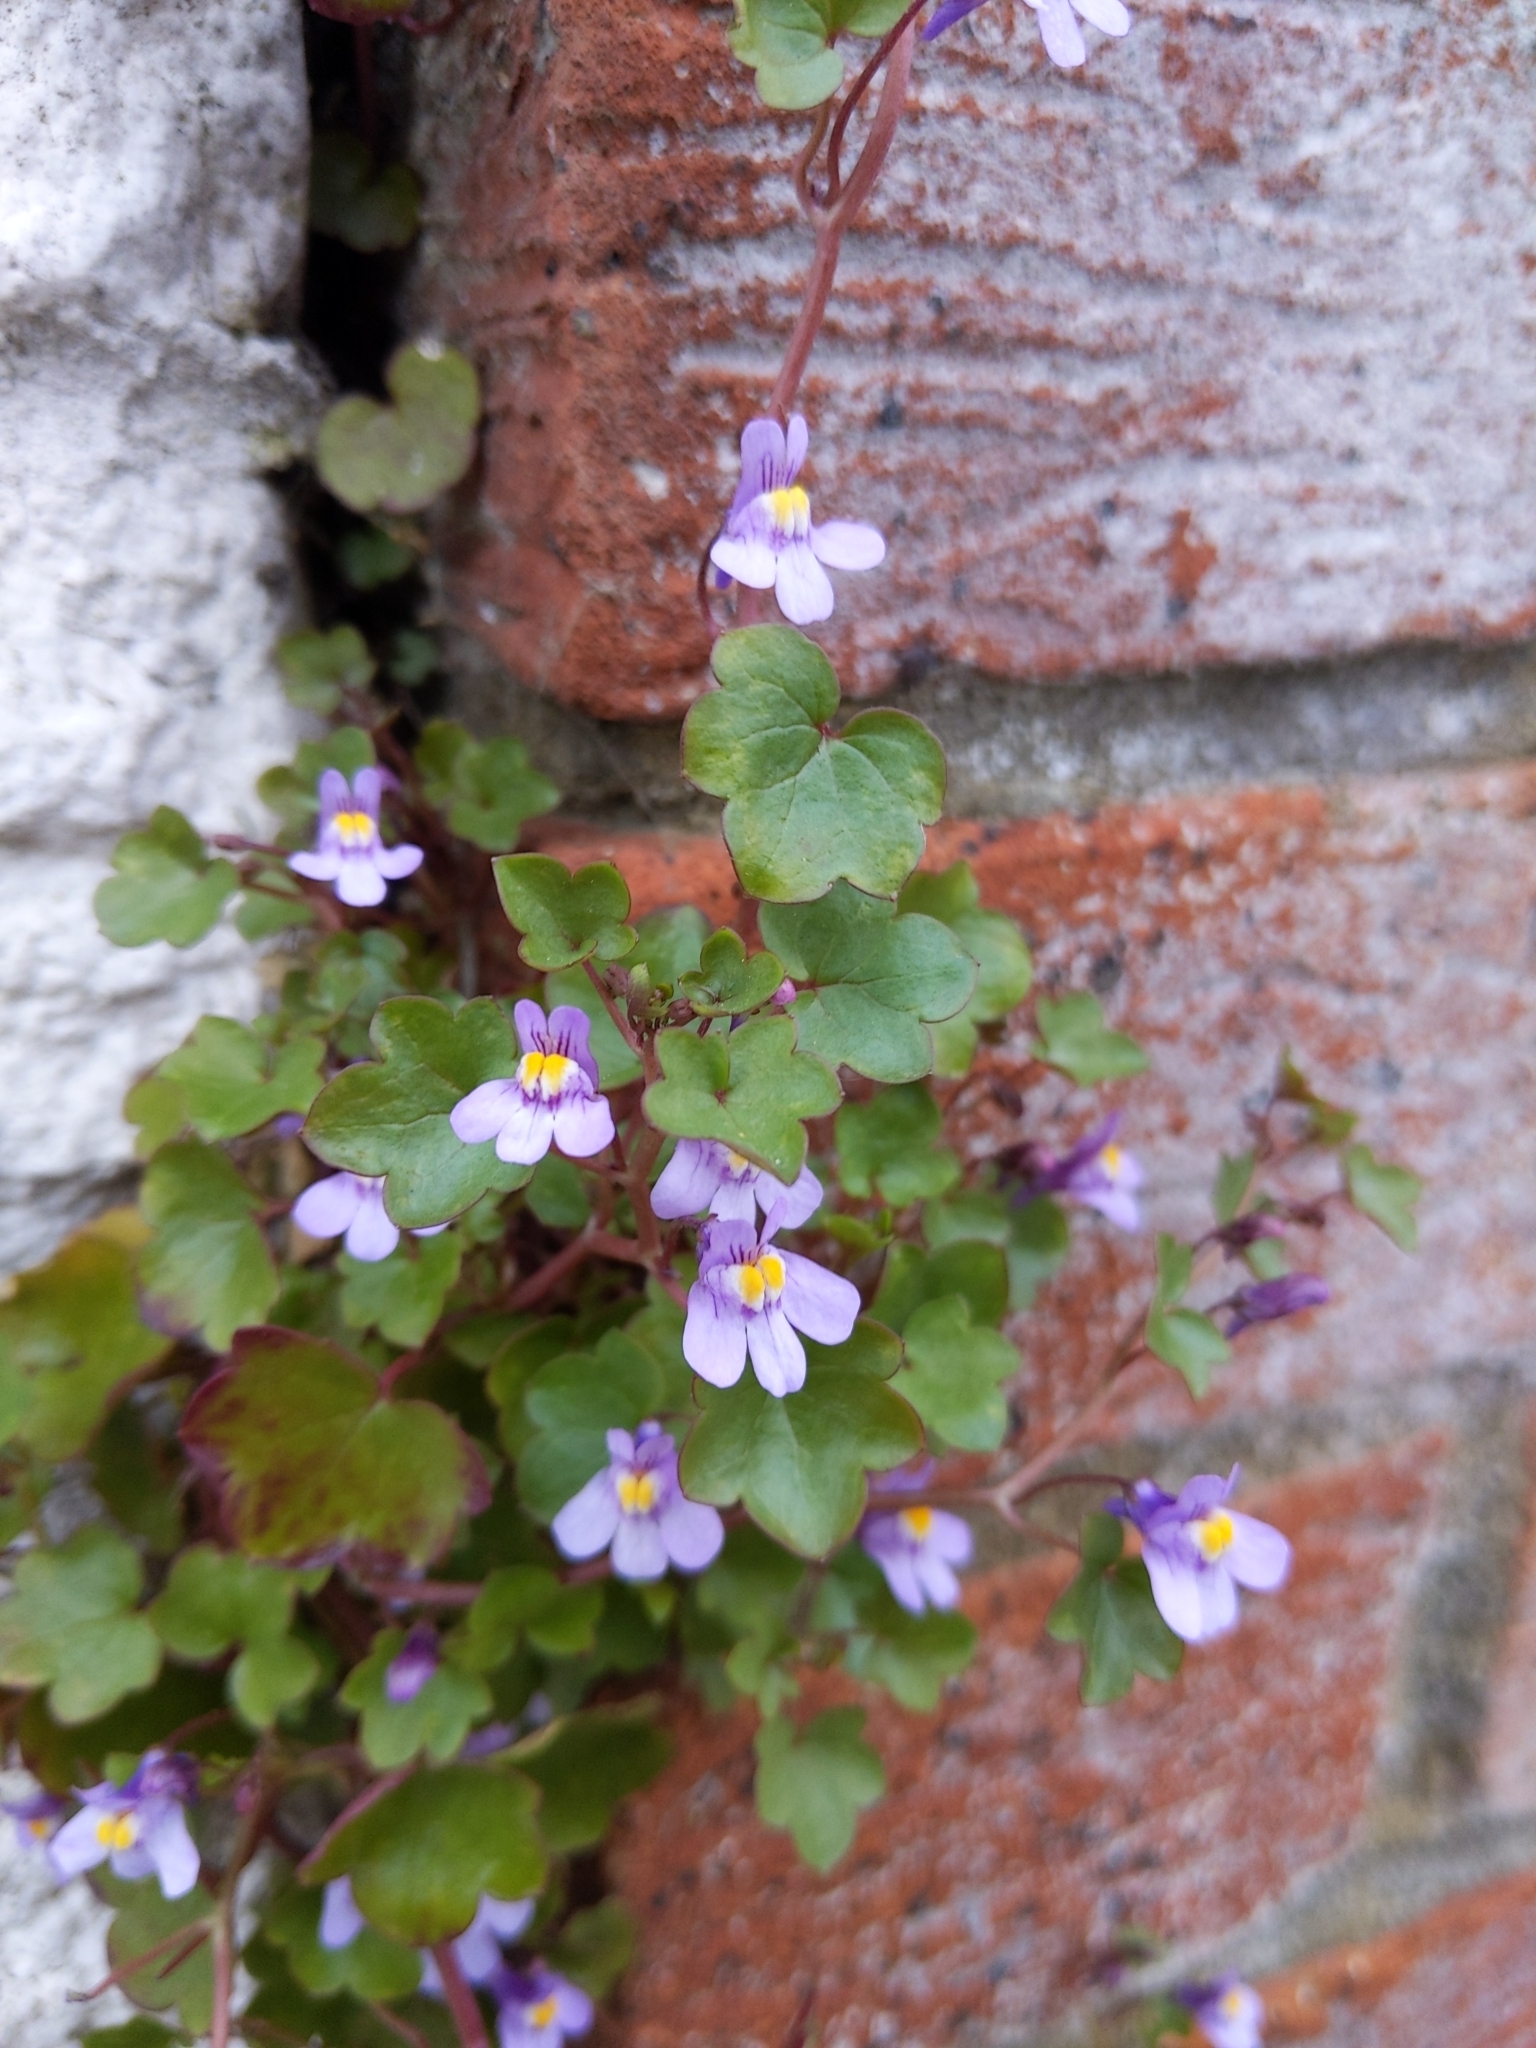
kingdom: Plantae
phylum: Tracheophyta
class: Magnoliopsida
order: Lamiales
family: Plantaginaceae
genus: Cymbalaria
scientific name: Cymbalaria muralis
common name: Ivy-leaved toadflax
